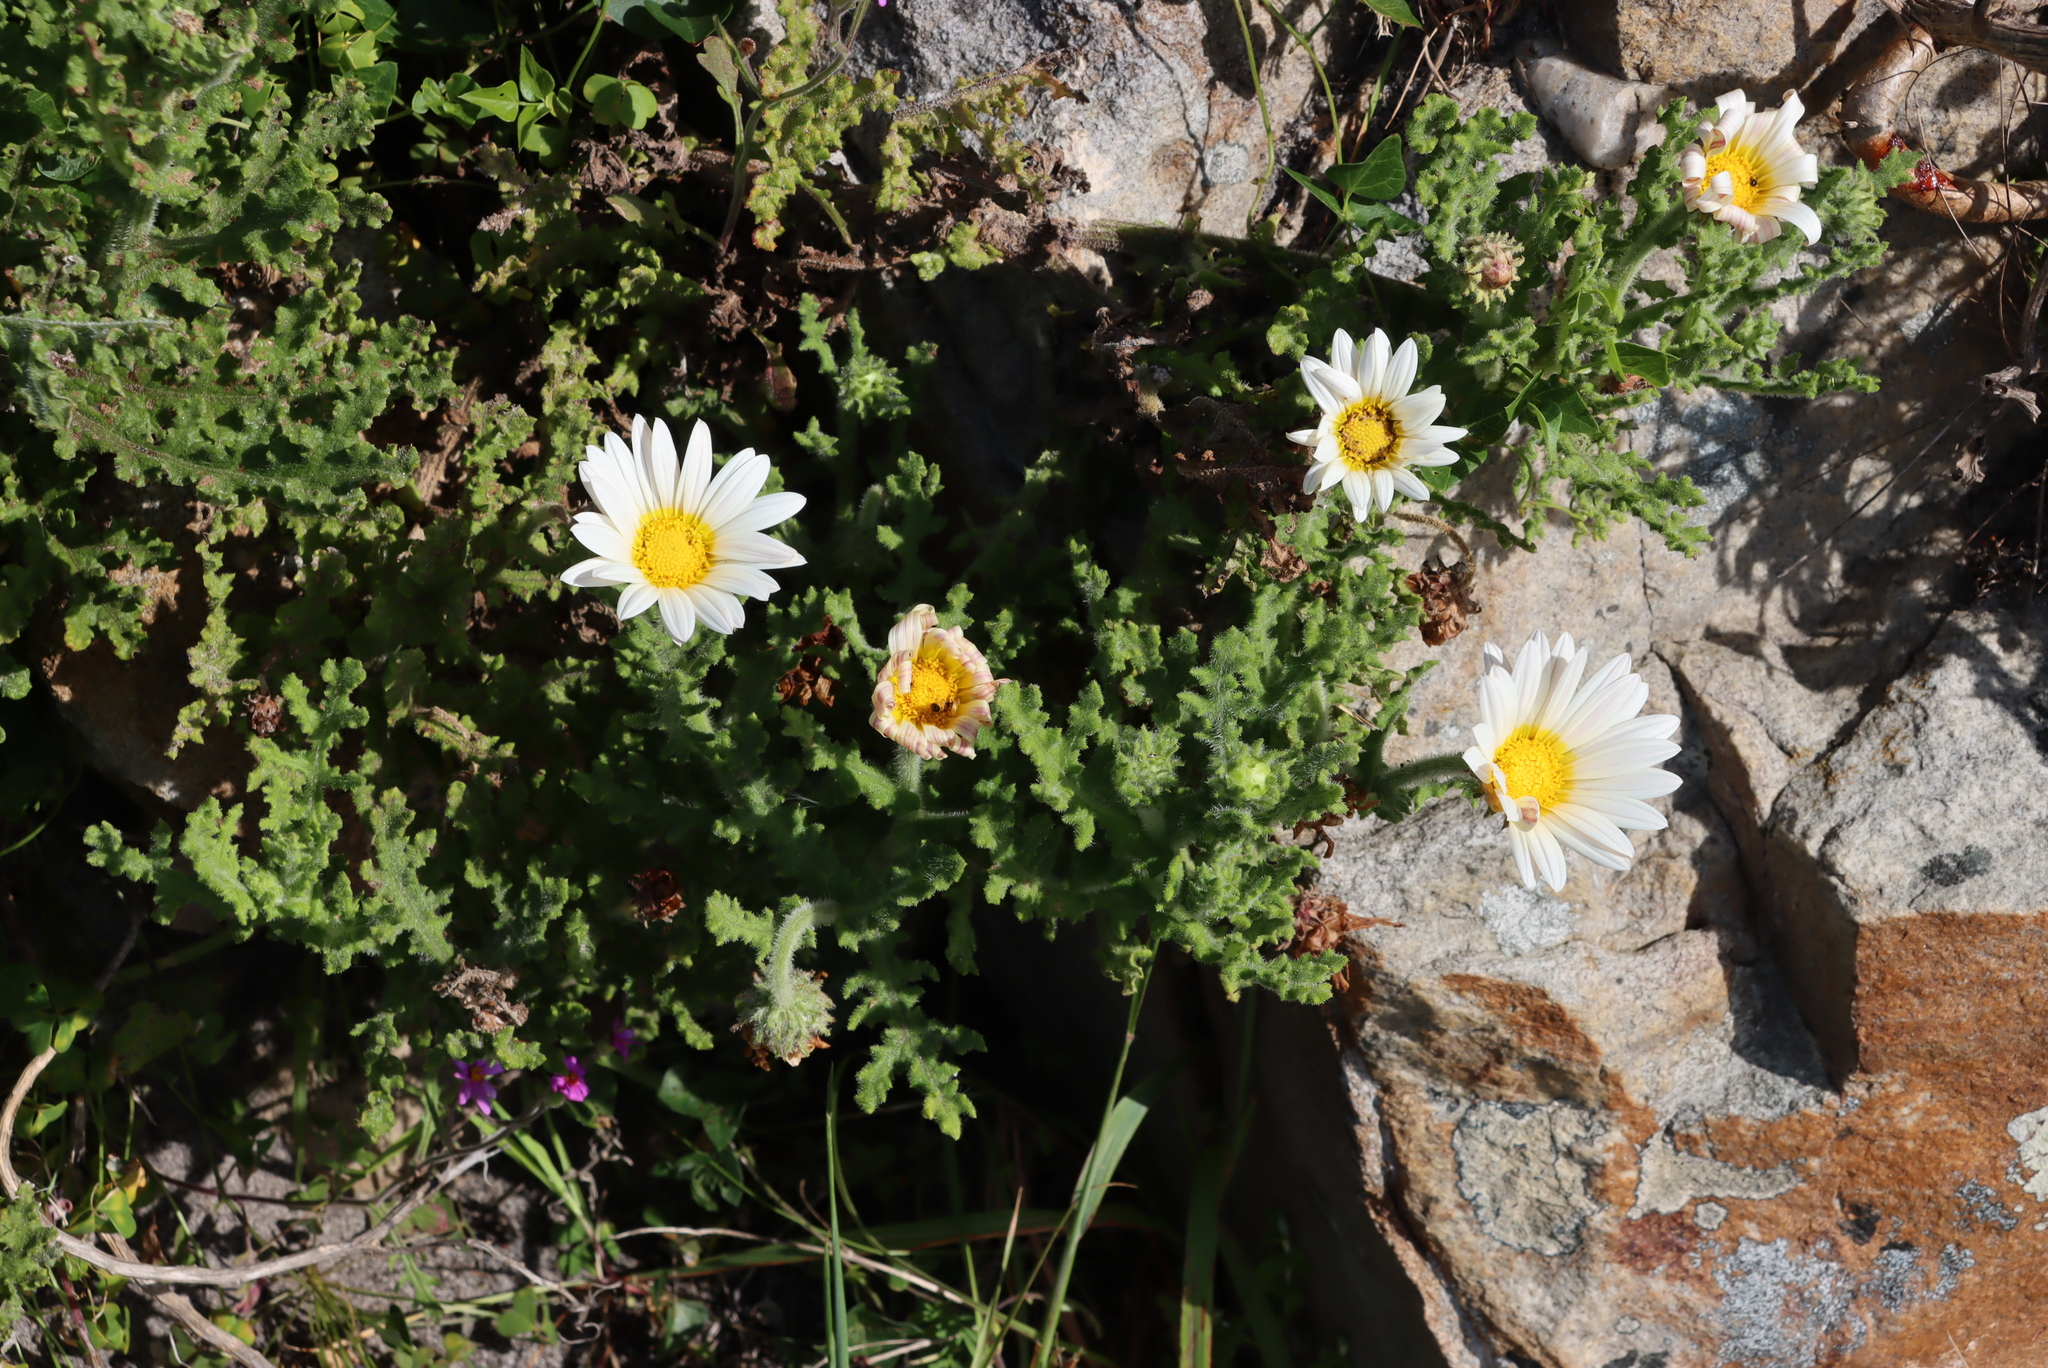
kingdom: Plantae
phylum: Tracheophyta
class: Magnoliopsida
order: Asterales
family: Asteraceae
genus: Arctotis
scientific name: Arctotis aspera
